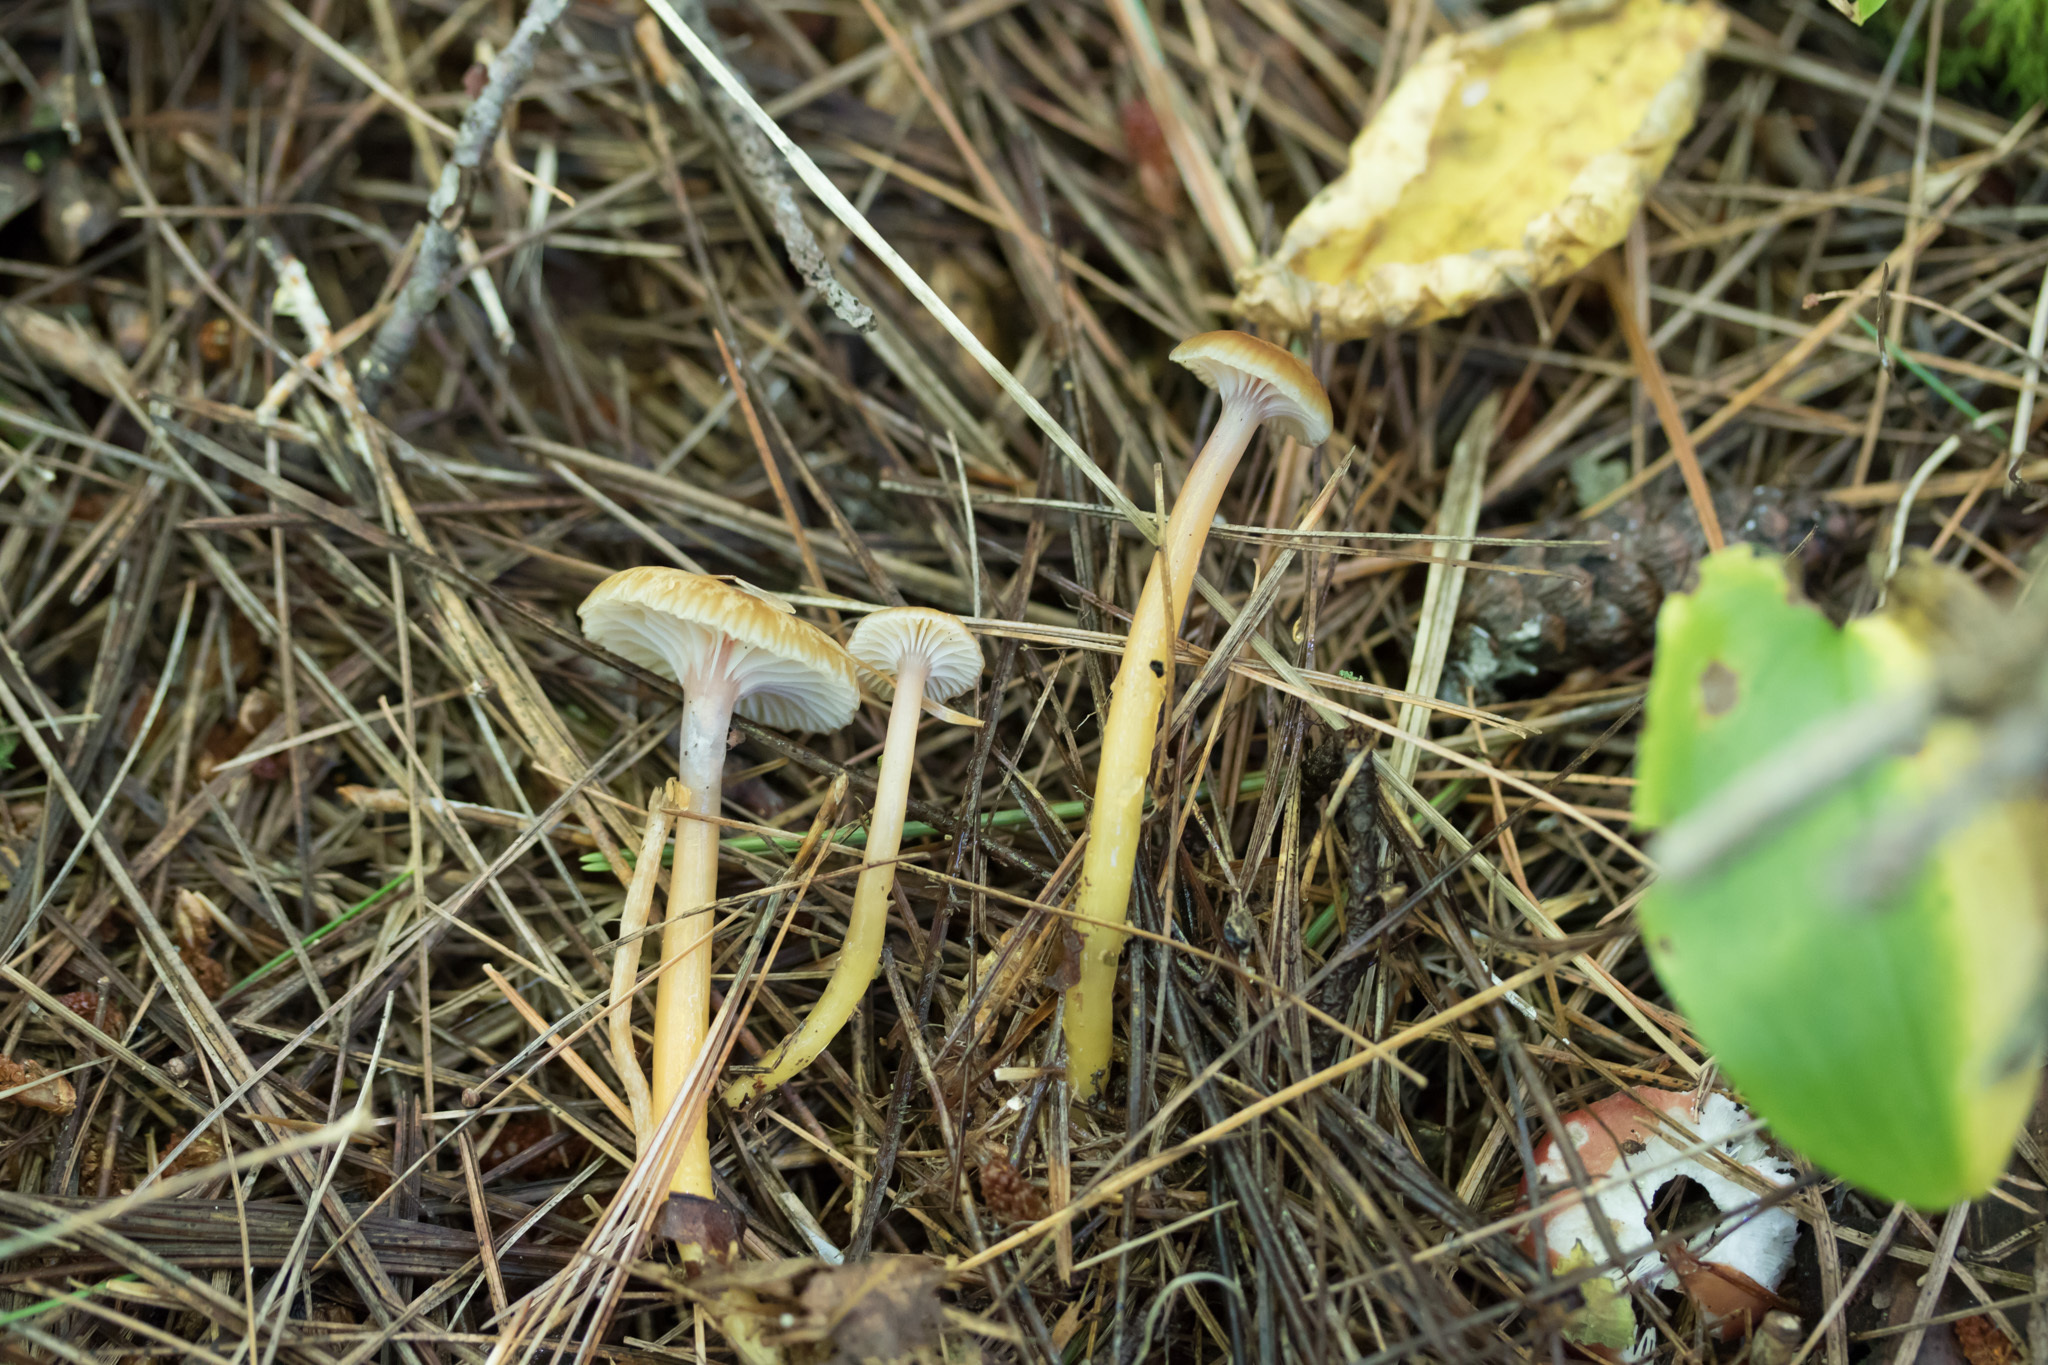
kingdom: Fungi
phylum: Basidiomycota
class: Agaricomycetes
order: Agaricales
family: Hygrophoraceae
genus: Gliophorus
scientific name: Gliophorus laetus
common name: Heath waxcap
